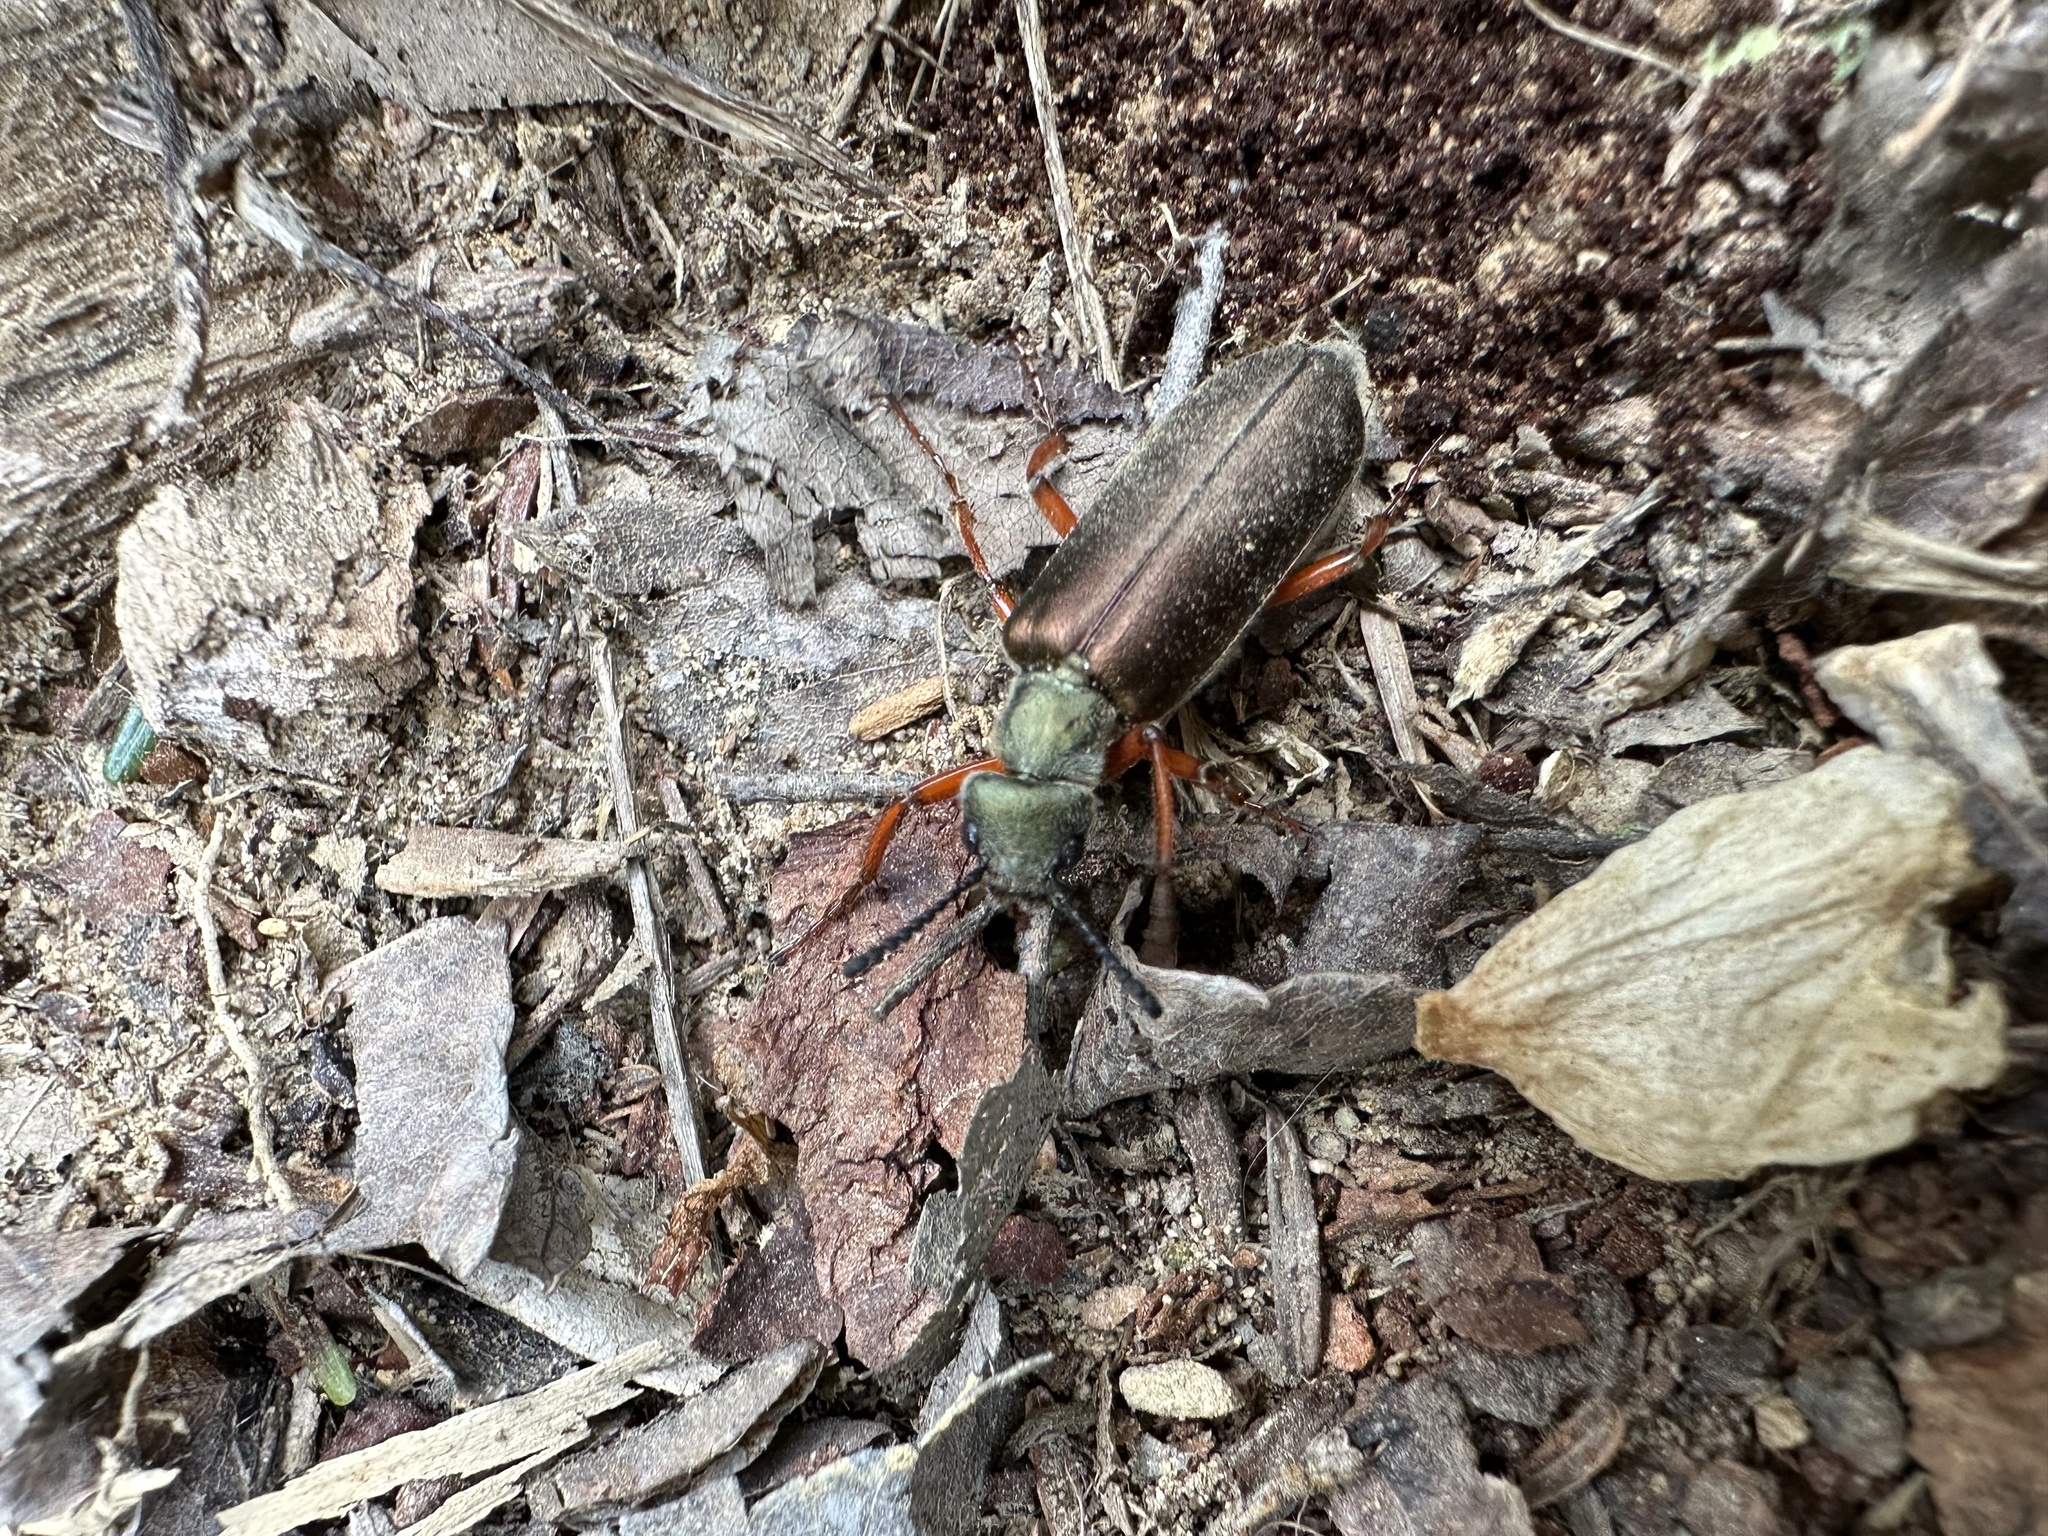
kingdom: Animalia
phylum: Arthropoda
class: Insecta
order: Coleoptera
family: Meloidae
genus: Lytta
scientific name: Lytta aenea
